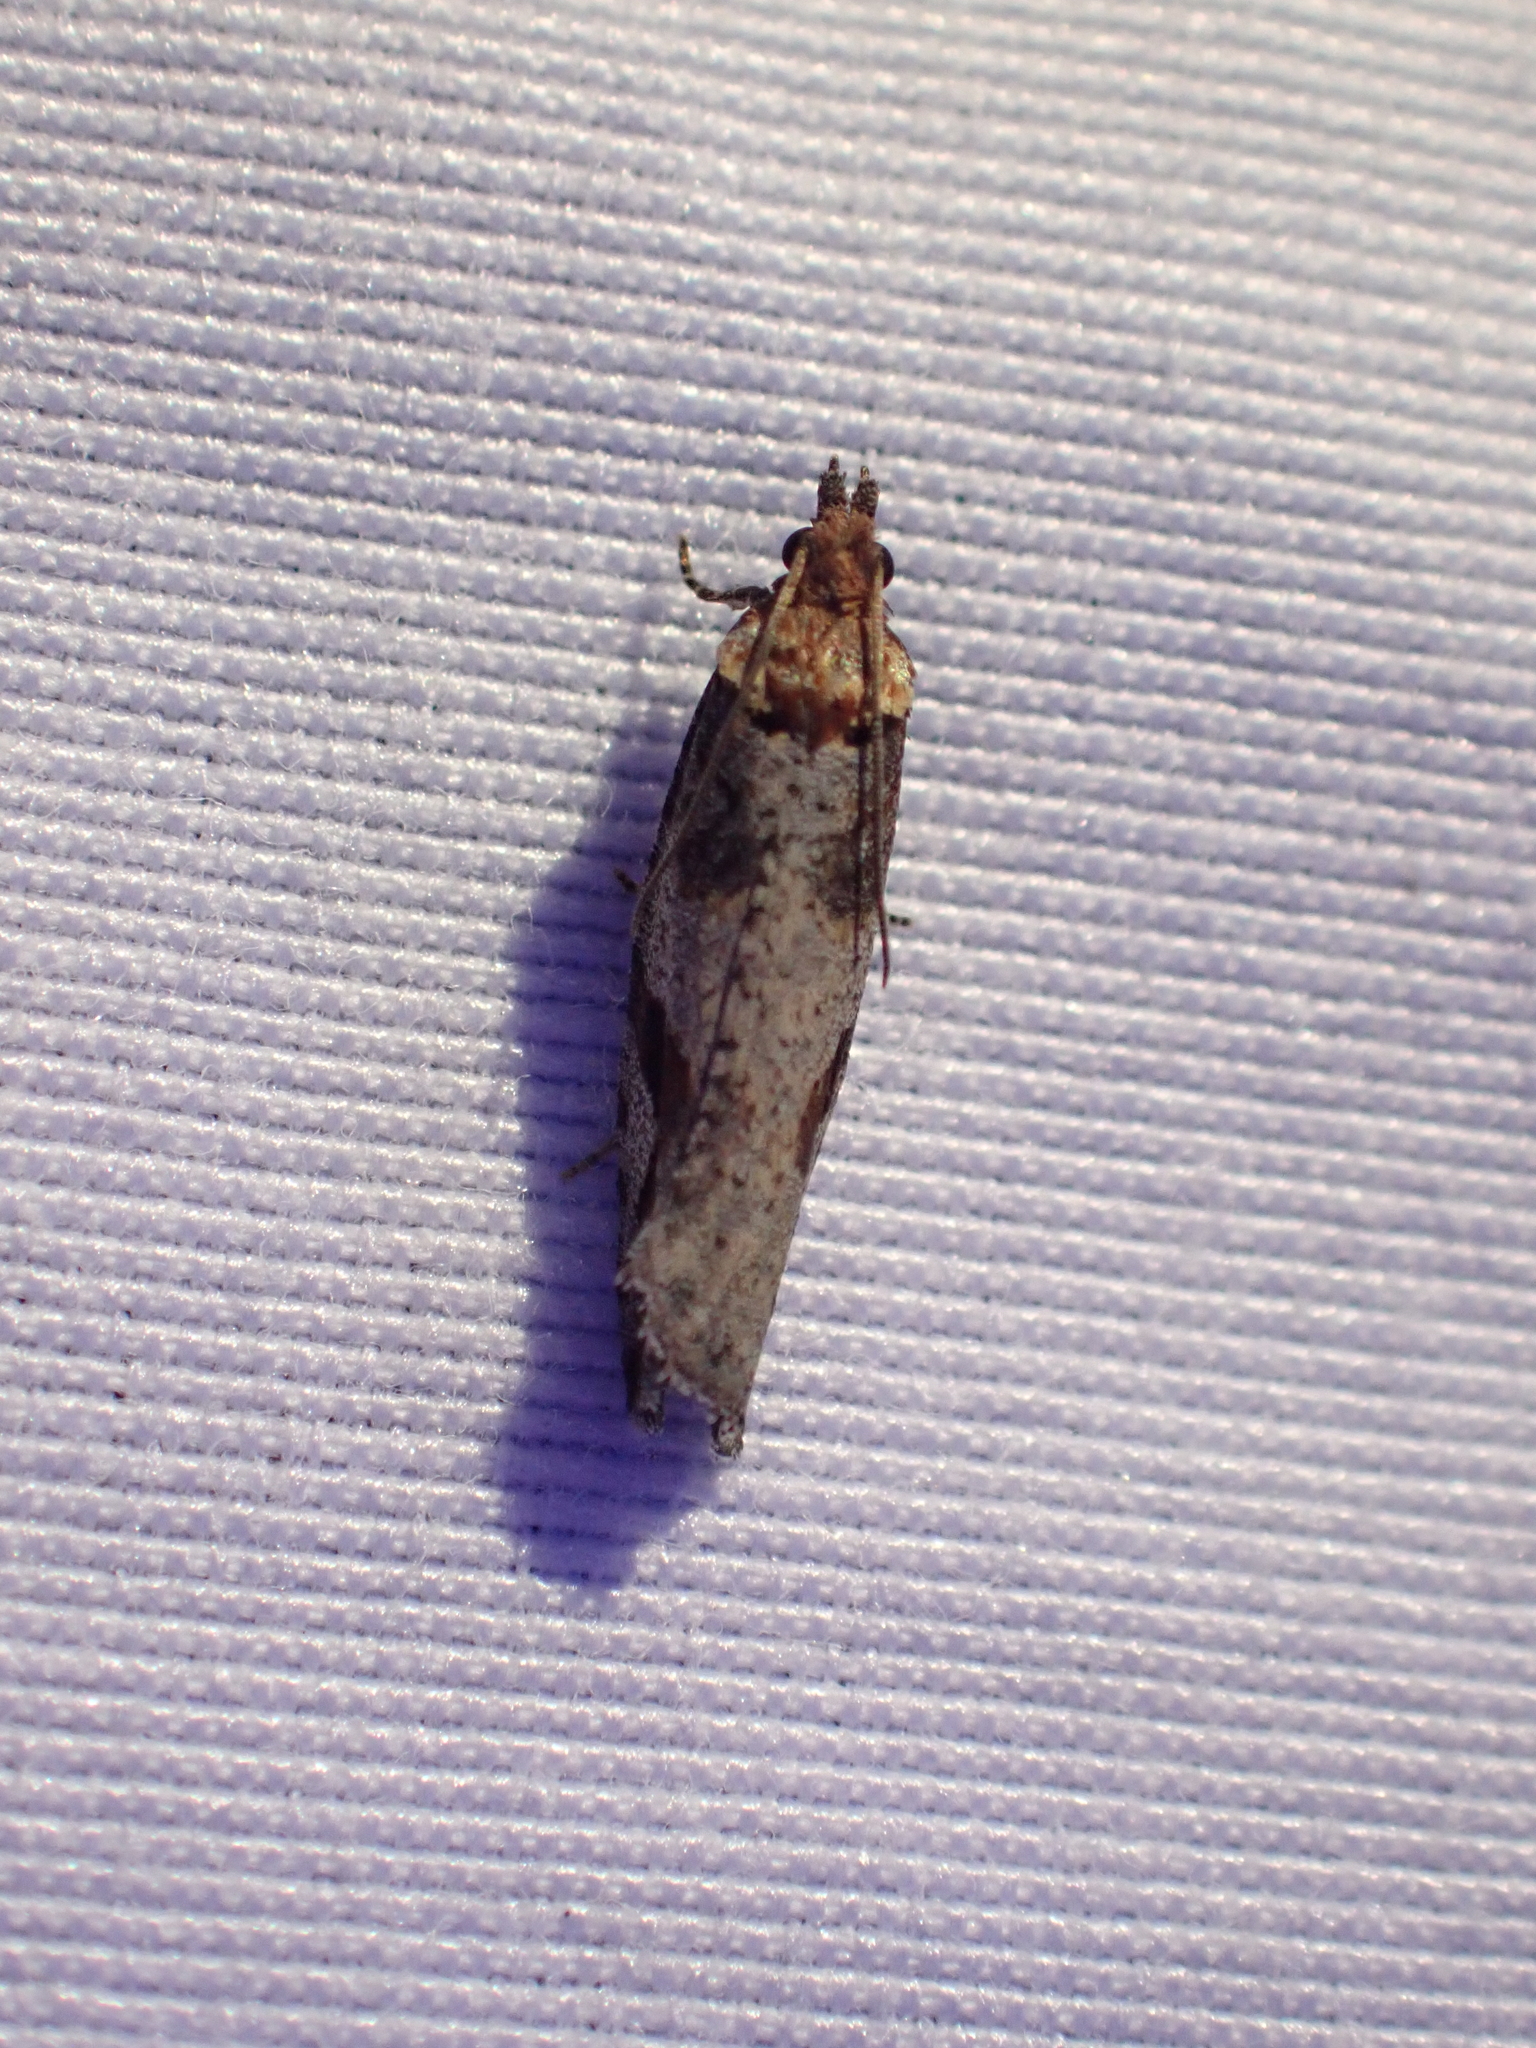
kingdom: Animalia
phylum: Arthropoda
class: Insecta
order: Lepidoptera
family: Tortricidae
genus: Epinotia
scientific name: Epinotia signiferana
